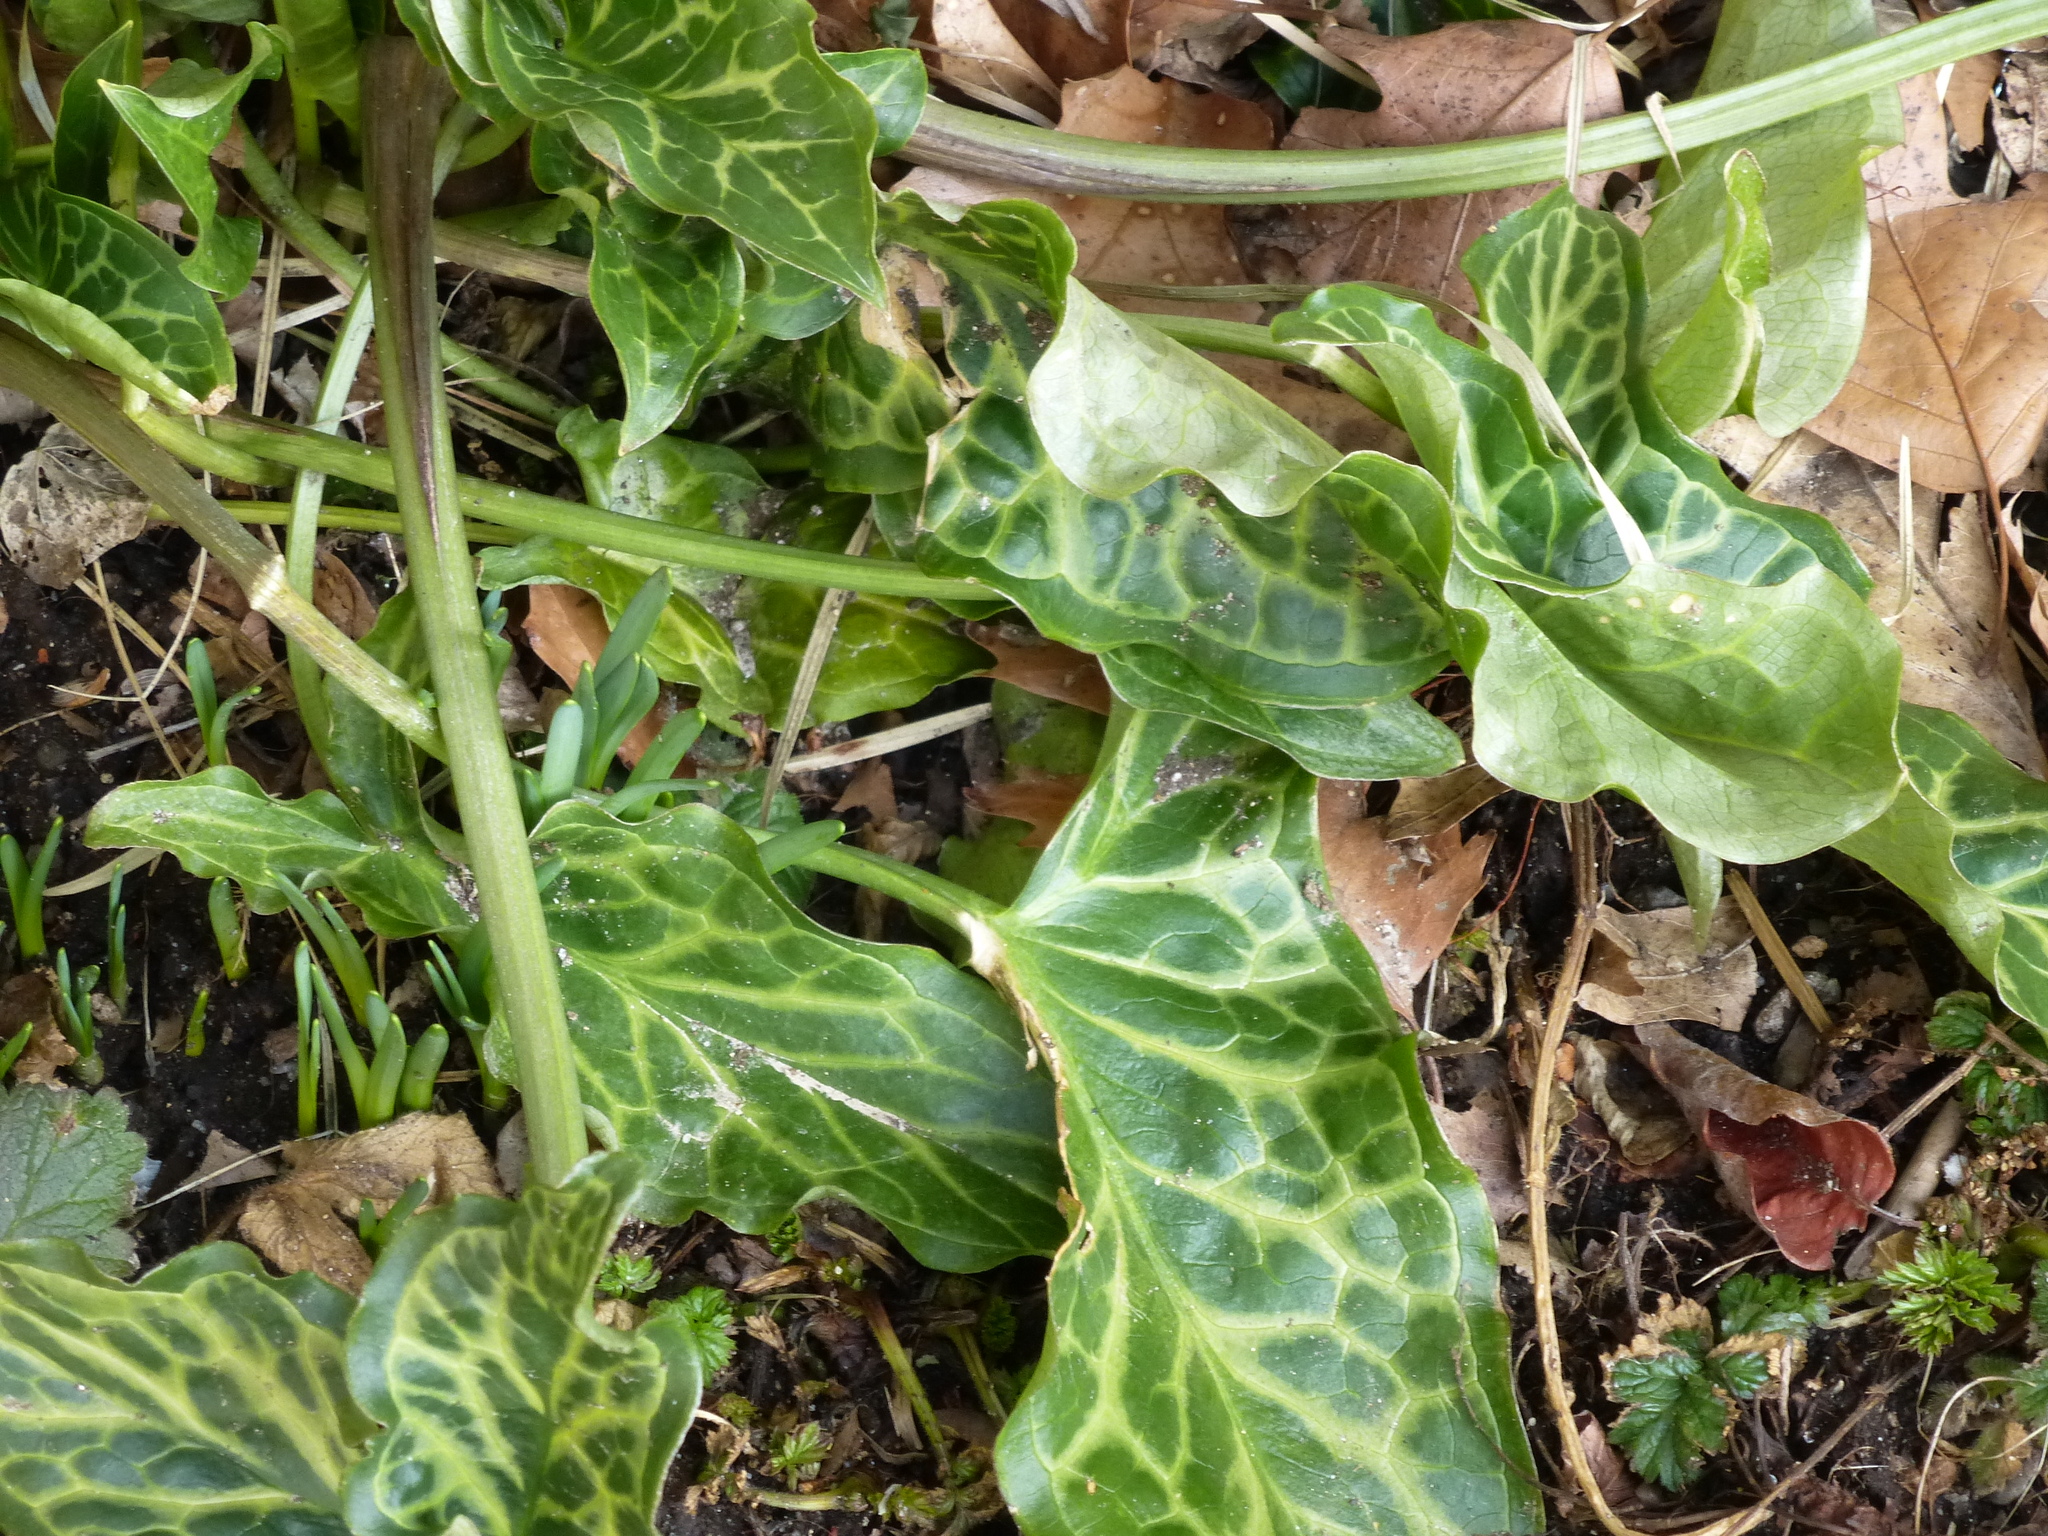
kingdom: Plantae
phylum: Tracheophyta
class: Liliopsida
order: Alismatales
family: Araceae
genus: Arum
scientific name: Arum italicum
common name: Italian lords-and-ladies
